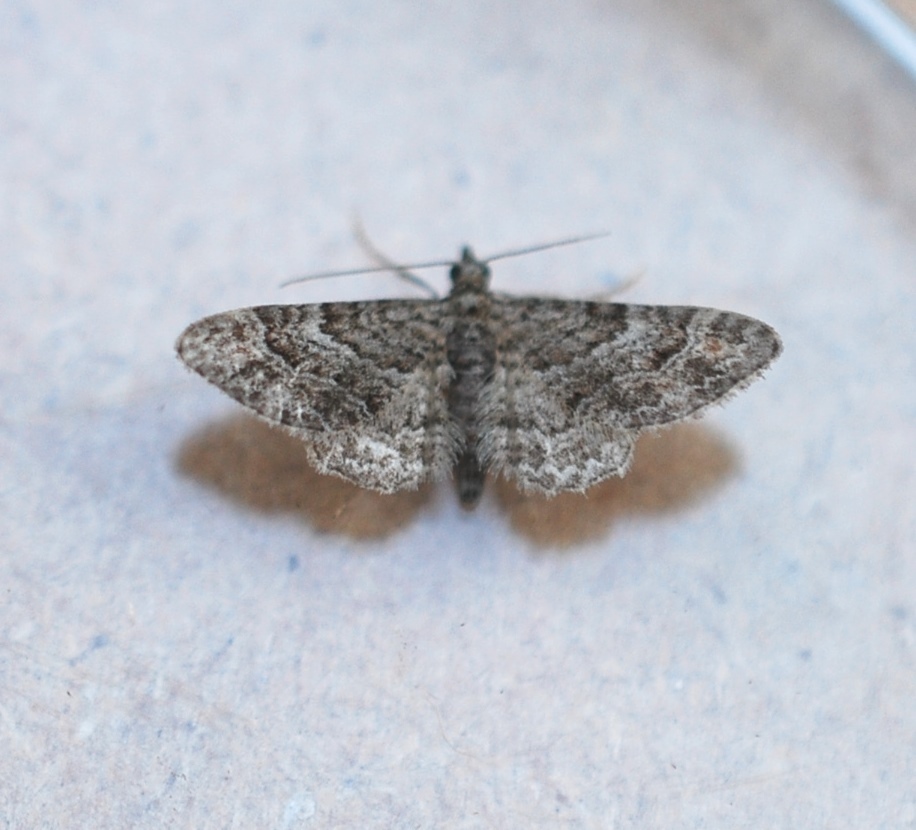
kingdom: Animalia
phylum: Arthropoda
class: Insecta
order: Lepidoptera
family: Geometridae
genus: Gymnoscelis
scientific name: Gymnoscelis rufifasciata
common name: Double-striped pug
